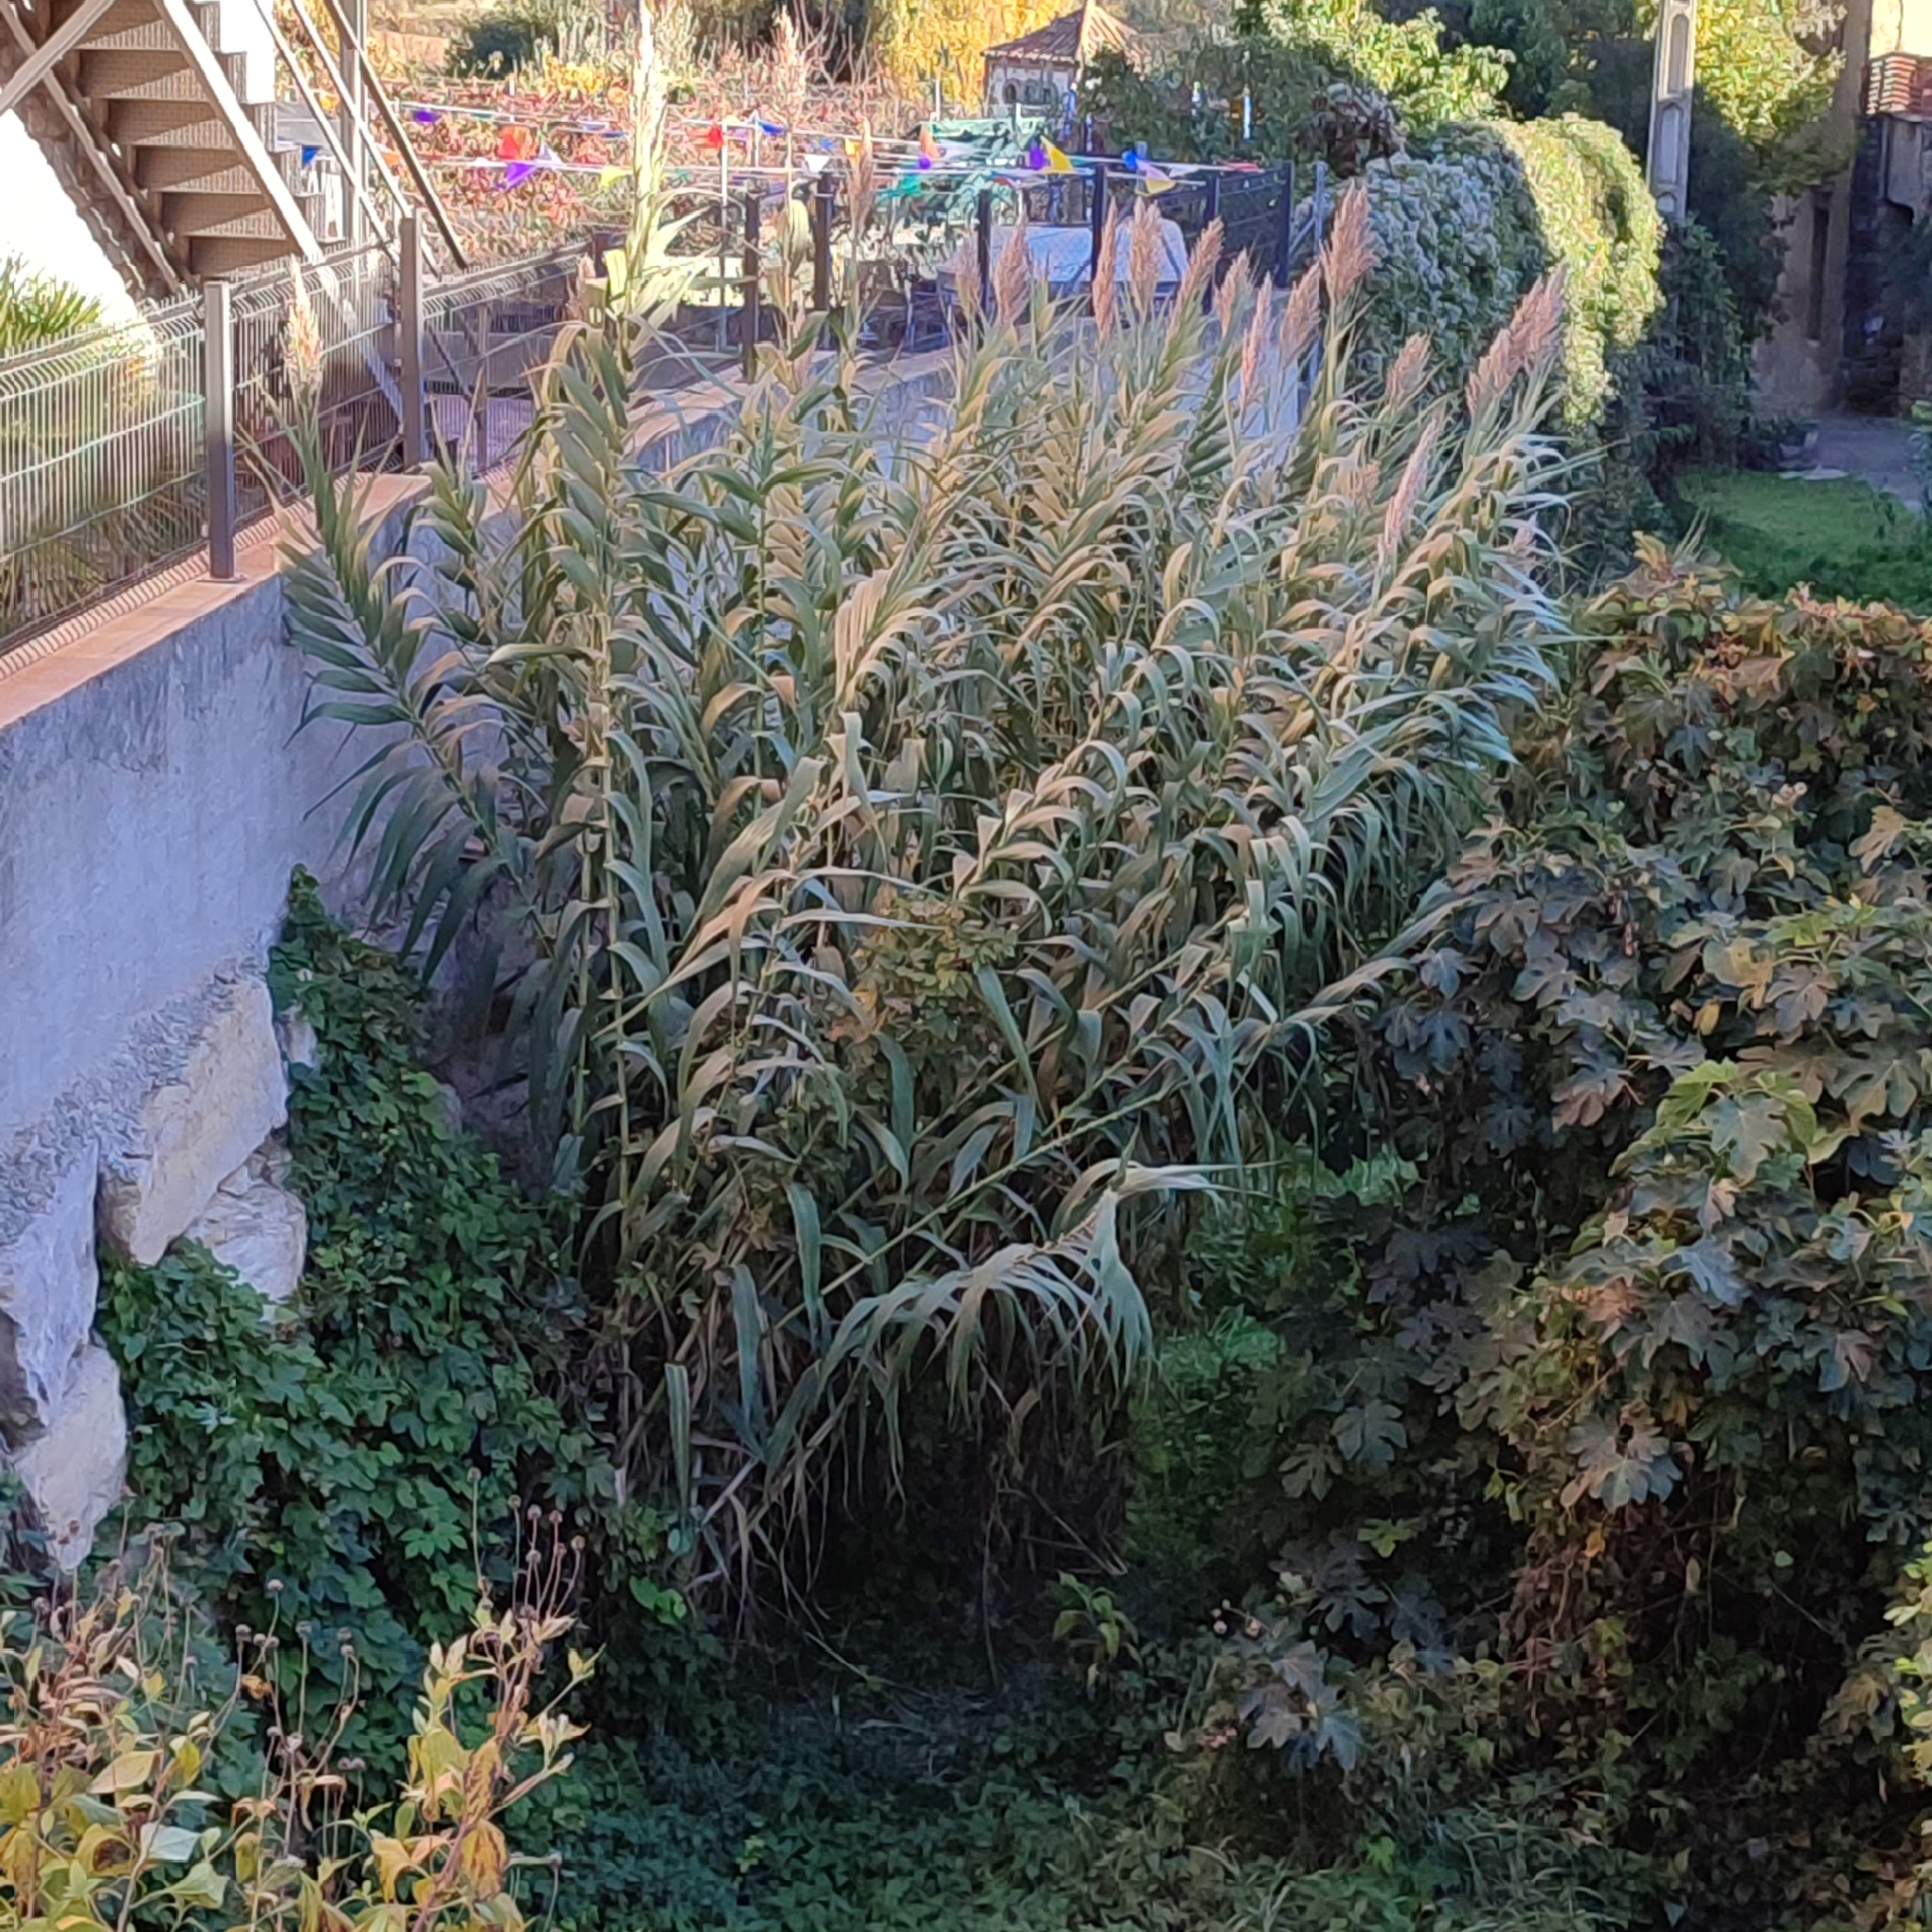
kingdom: Plantae
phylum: Tracheophyta
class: Liliopsida
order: Poales
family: Poaceae
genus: Arundo
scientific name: Arundo donax
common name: Giant reed
